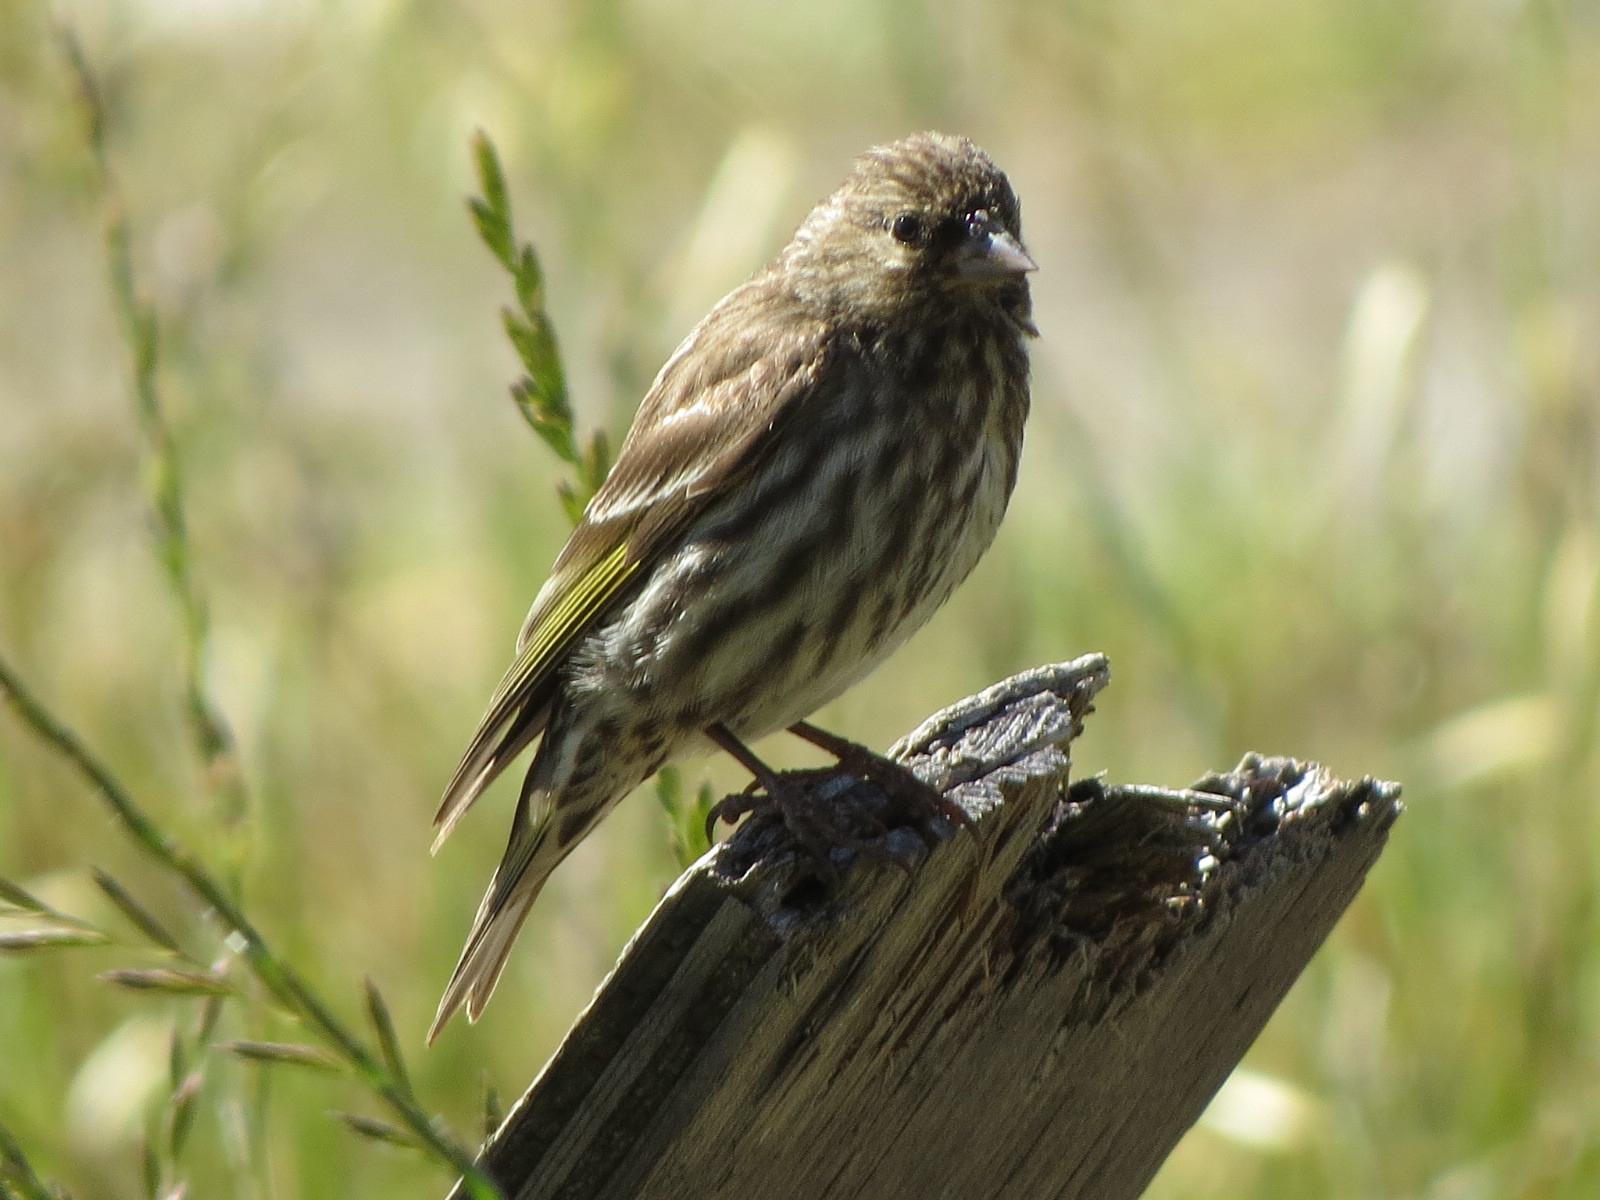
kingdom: Animalia
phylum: Chordata
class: Aves
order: Passeriformes
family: Fringillidae
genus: Spinus
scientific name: Spinus pinus
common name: Pine siskin
